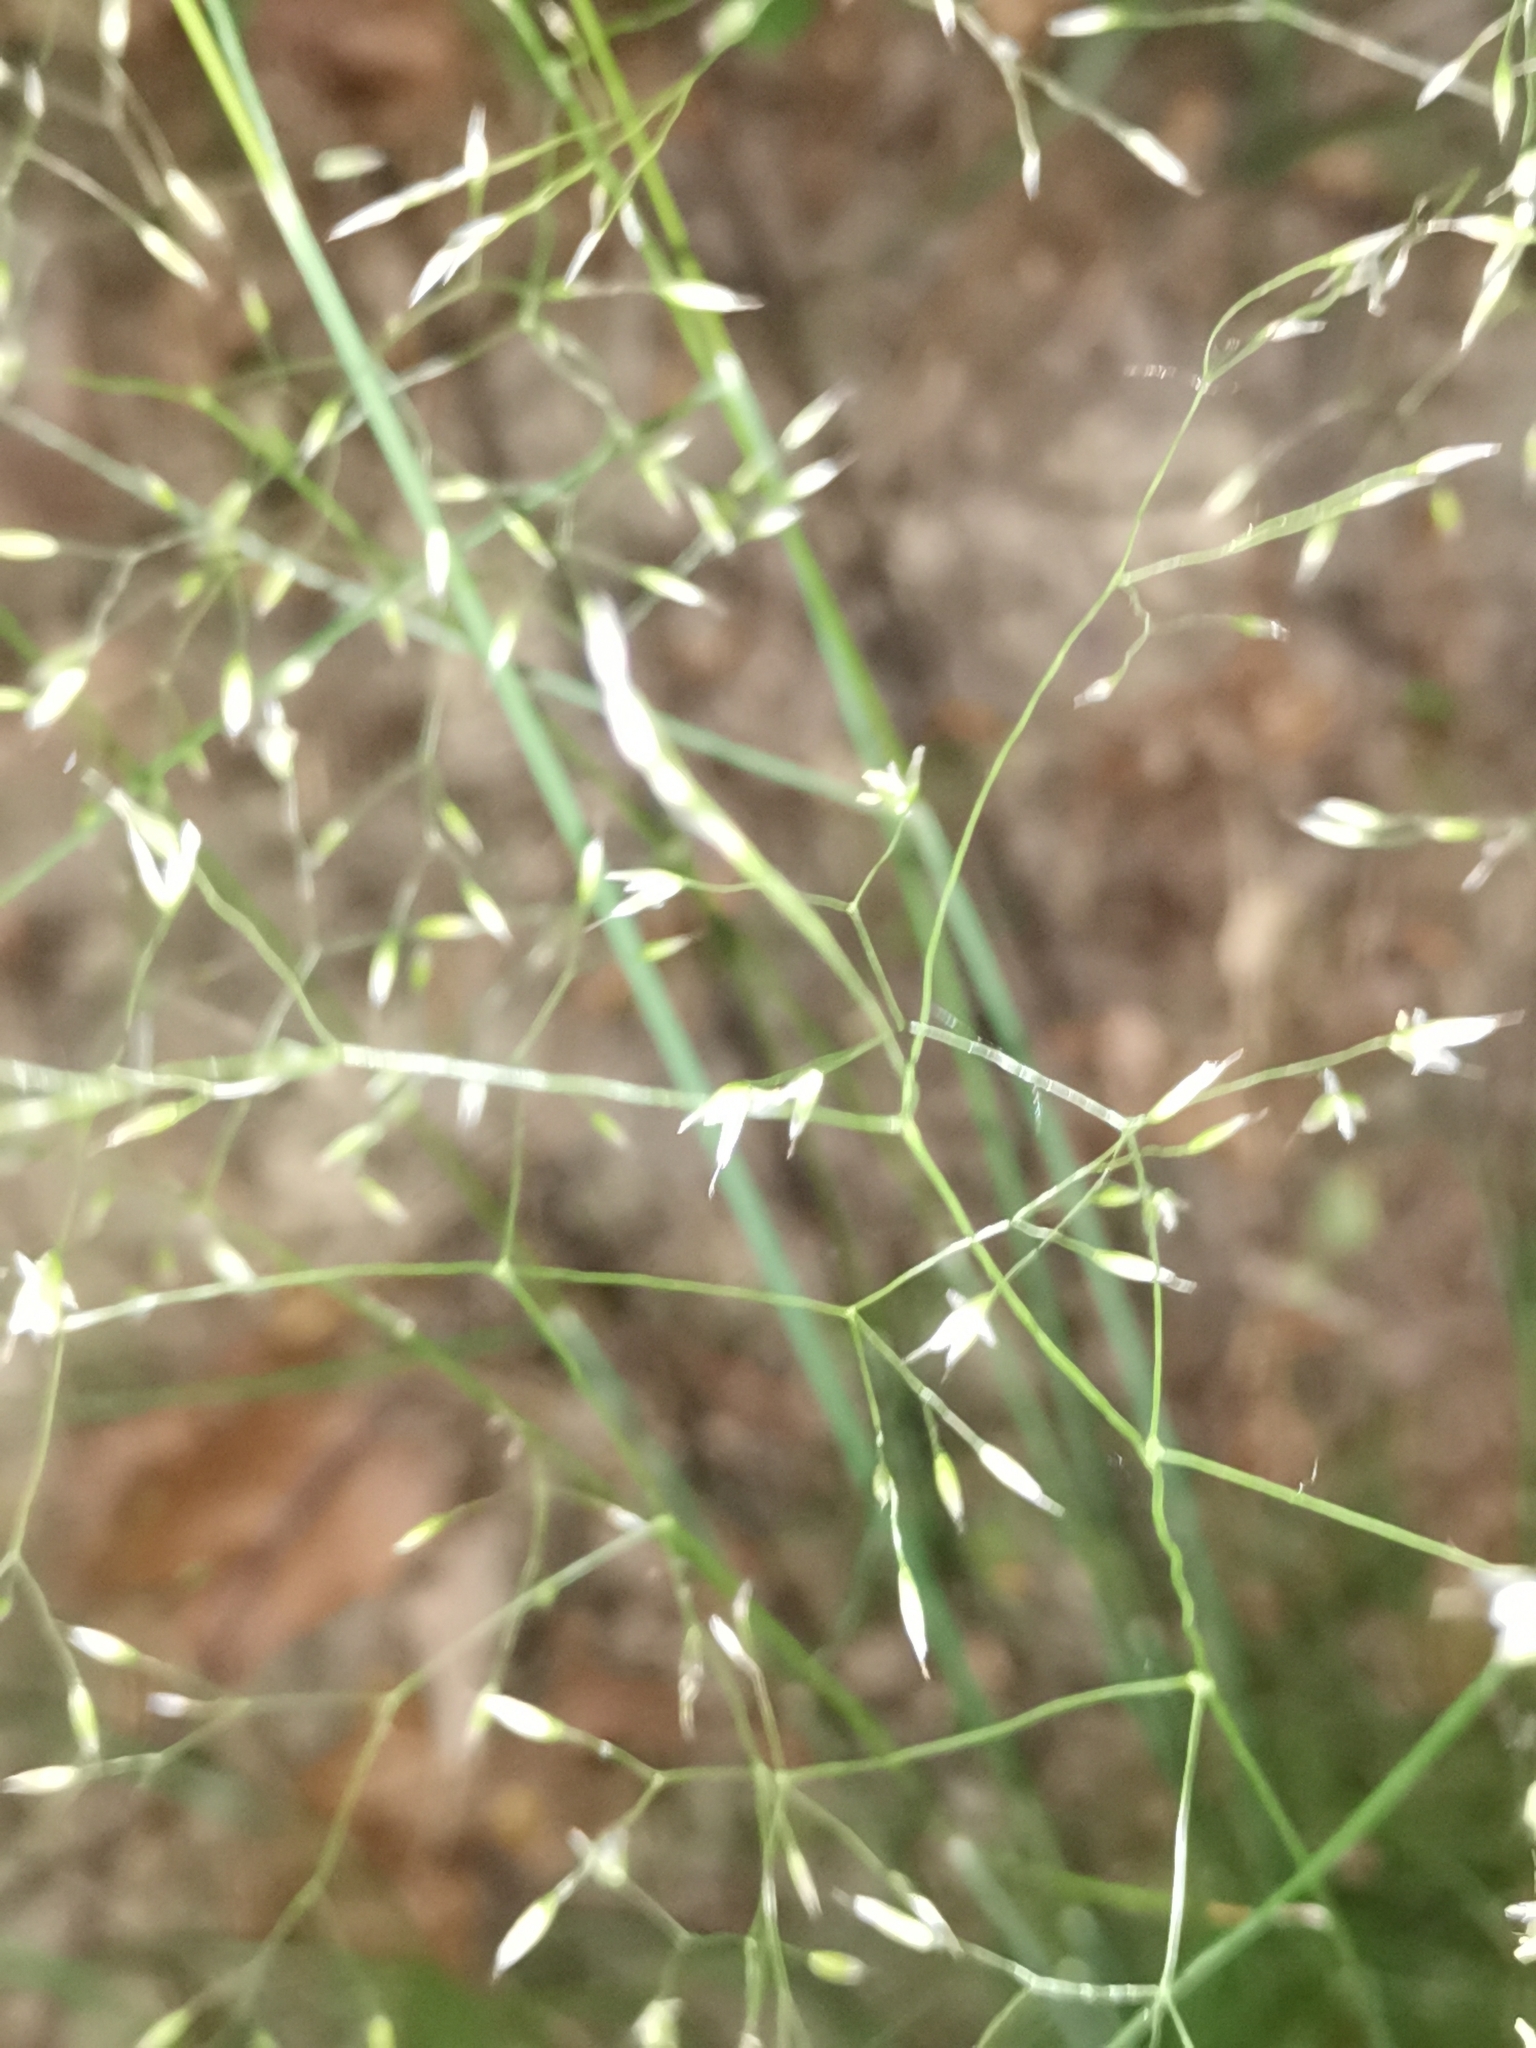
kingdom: Plantae
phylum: Tracheophyta
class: Liliopsida
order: Poales
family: Poaceae
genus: Avenella
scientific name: Avenella flexuosa
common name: Wavy hairgrass
